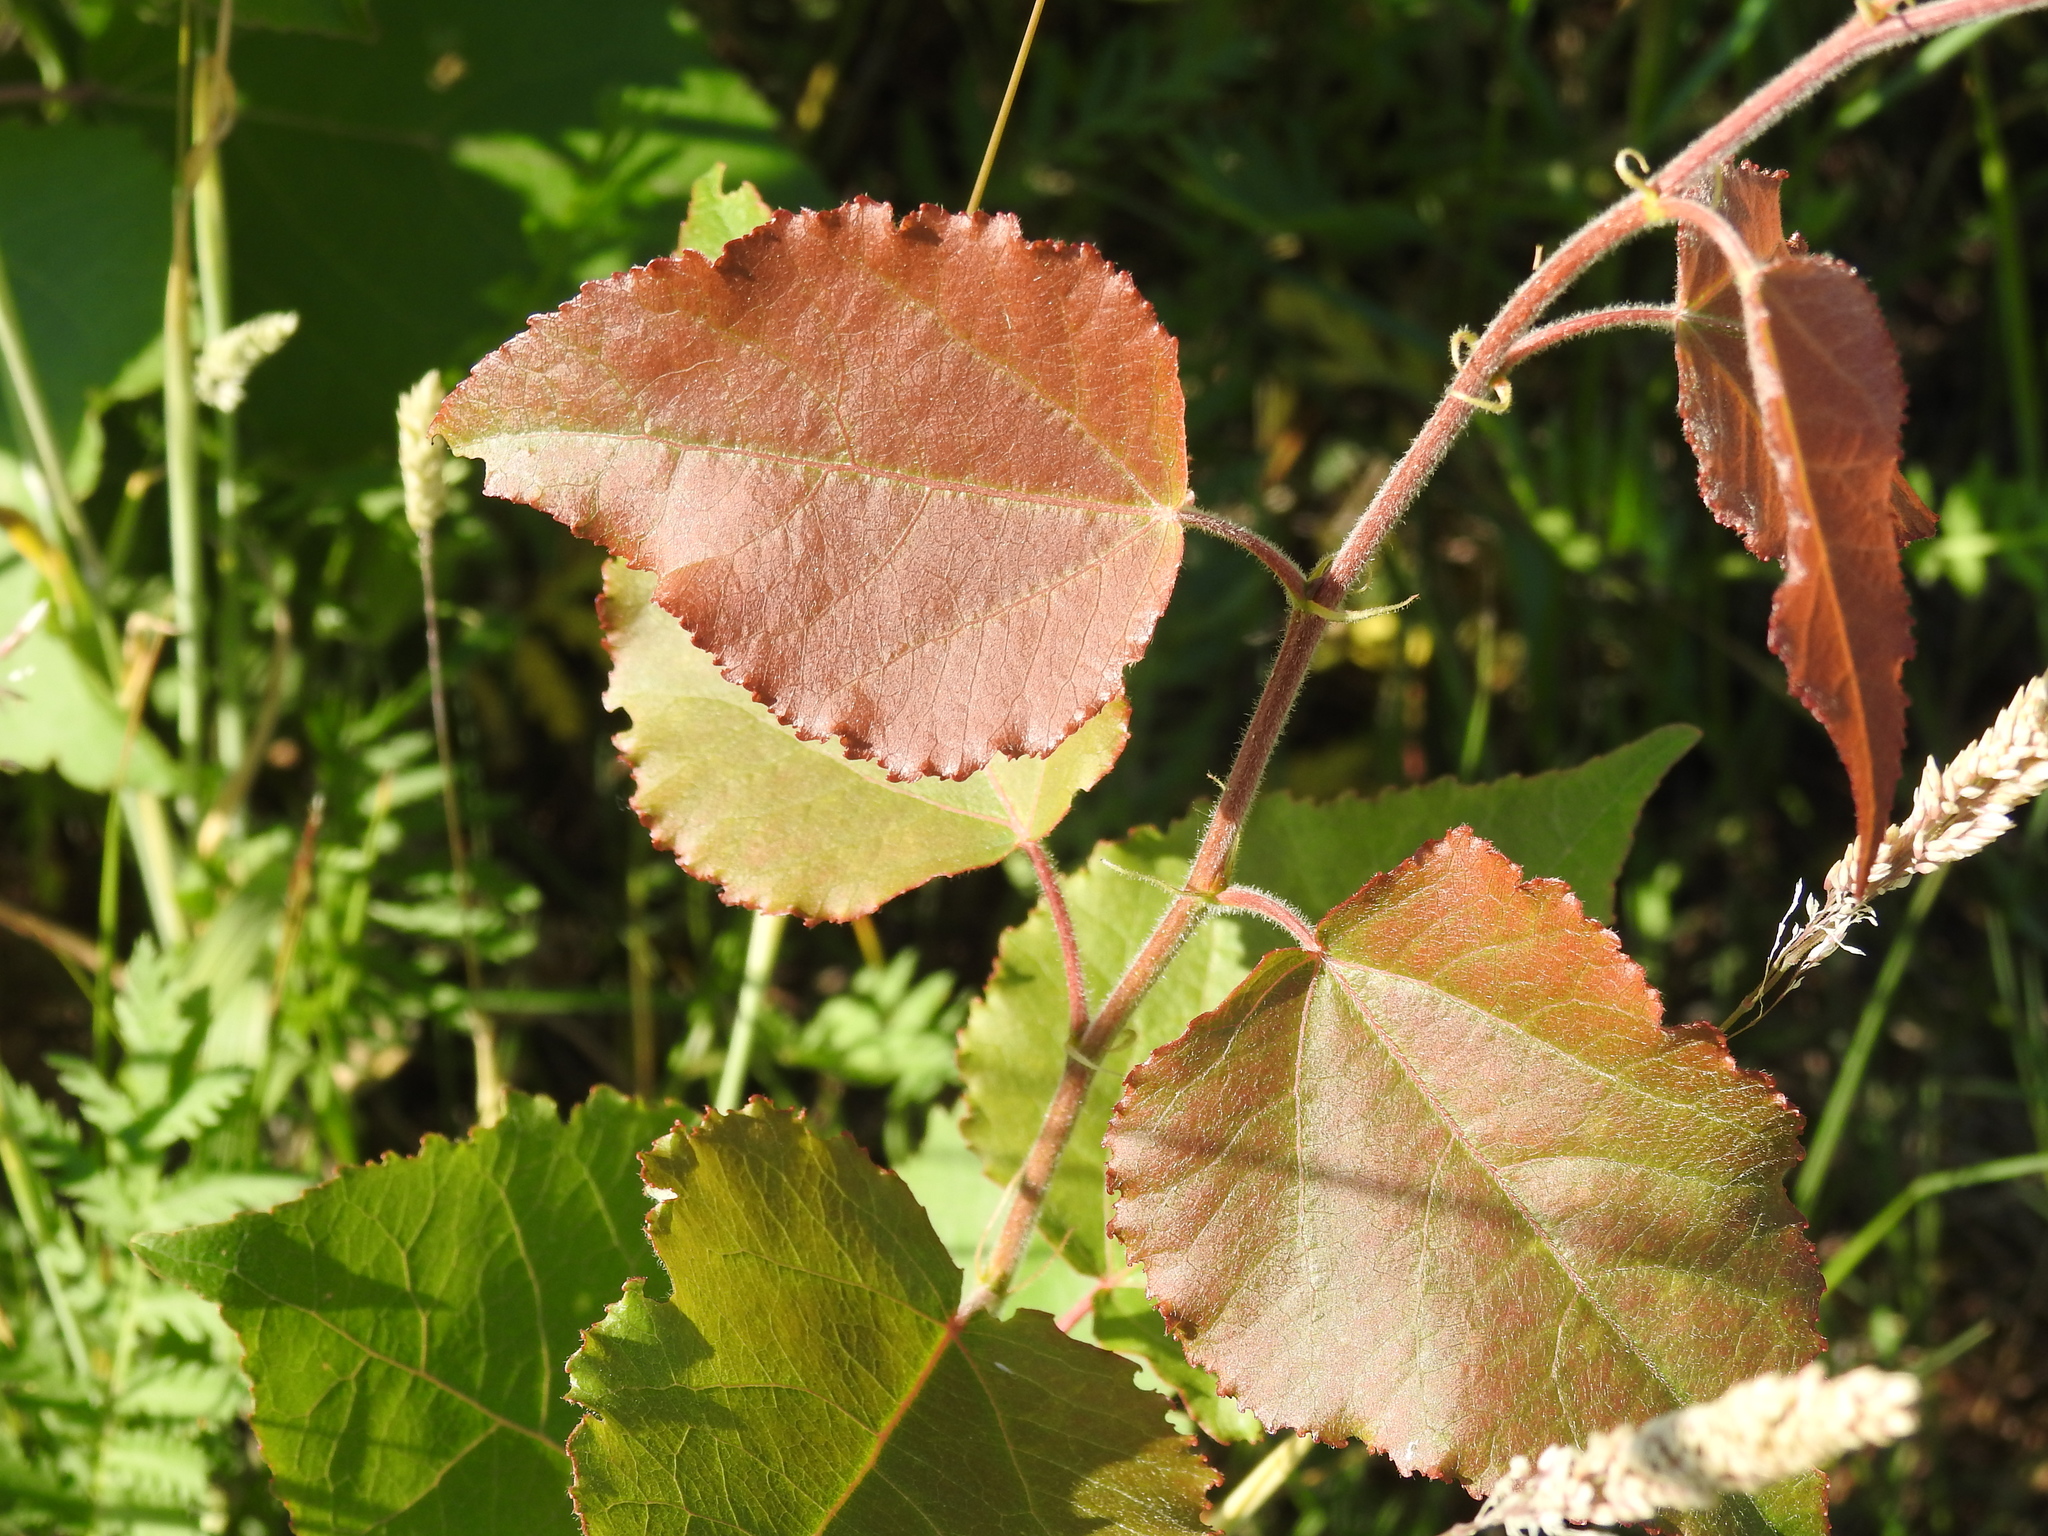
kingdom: Plantae
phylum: Tracheophyta
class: Magnoliopsida
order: Malpighiales
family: Salicaceae
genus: Populus
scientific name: Populus tremula
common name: European aspen
